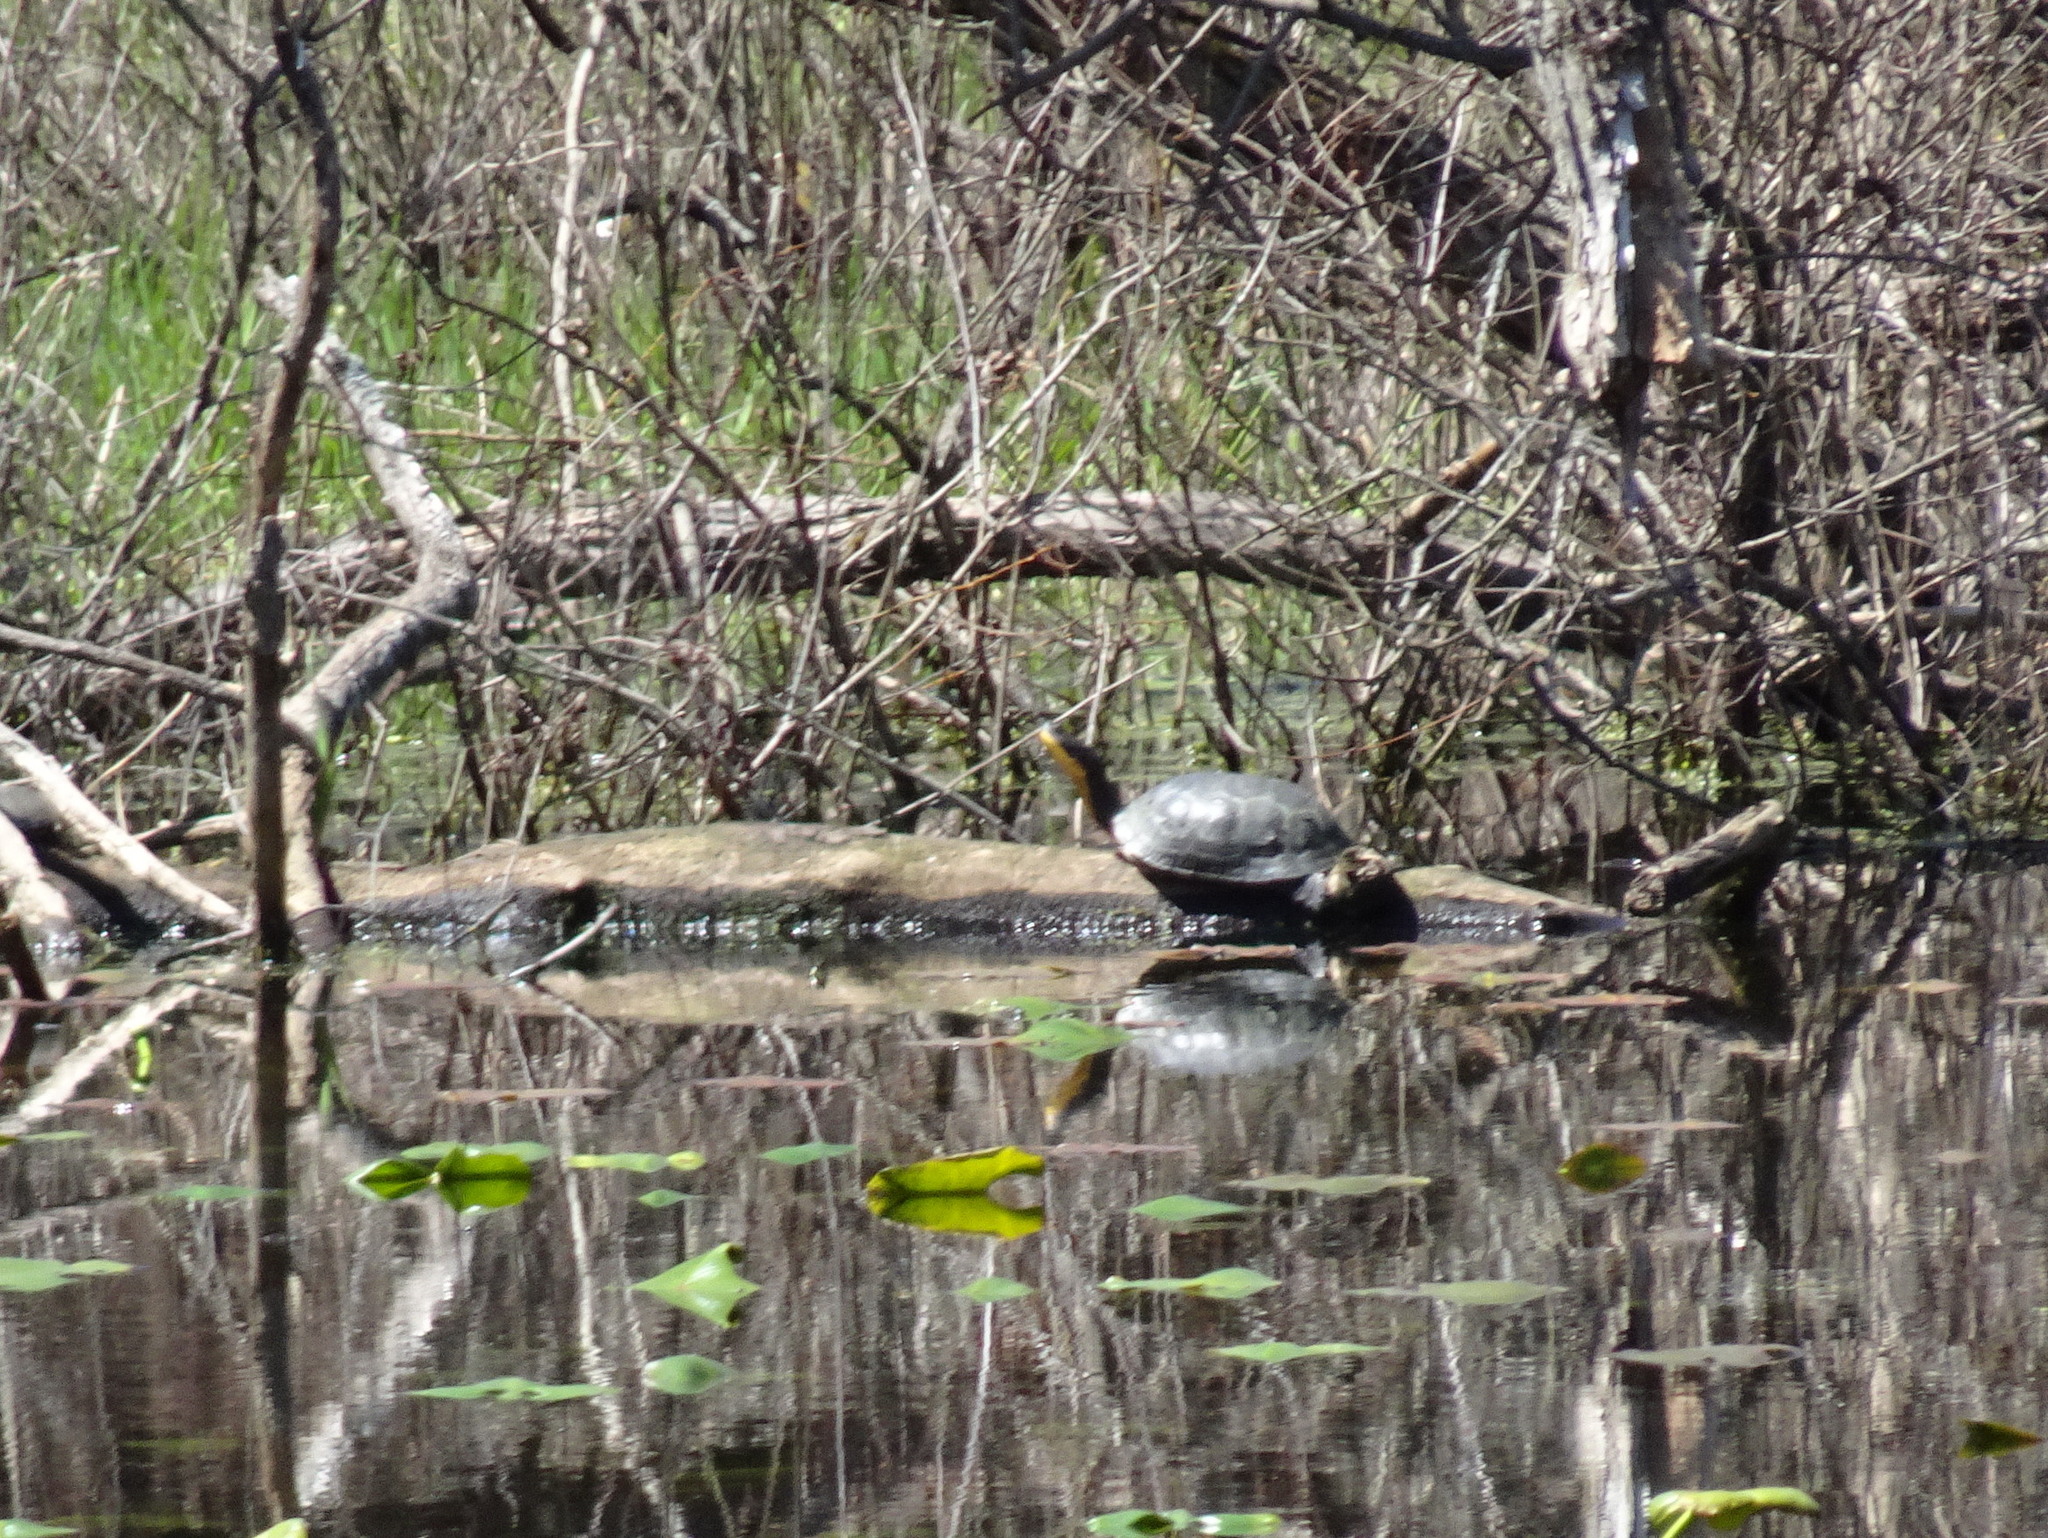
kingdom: Animalia
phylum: Chordata
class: Testudines
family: Emydidae
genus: Emys
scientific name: Emys blandingii
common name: Blanding's turtle
